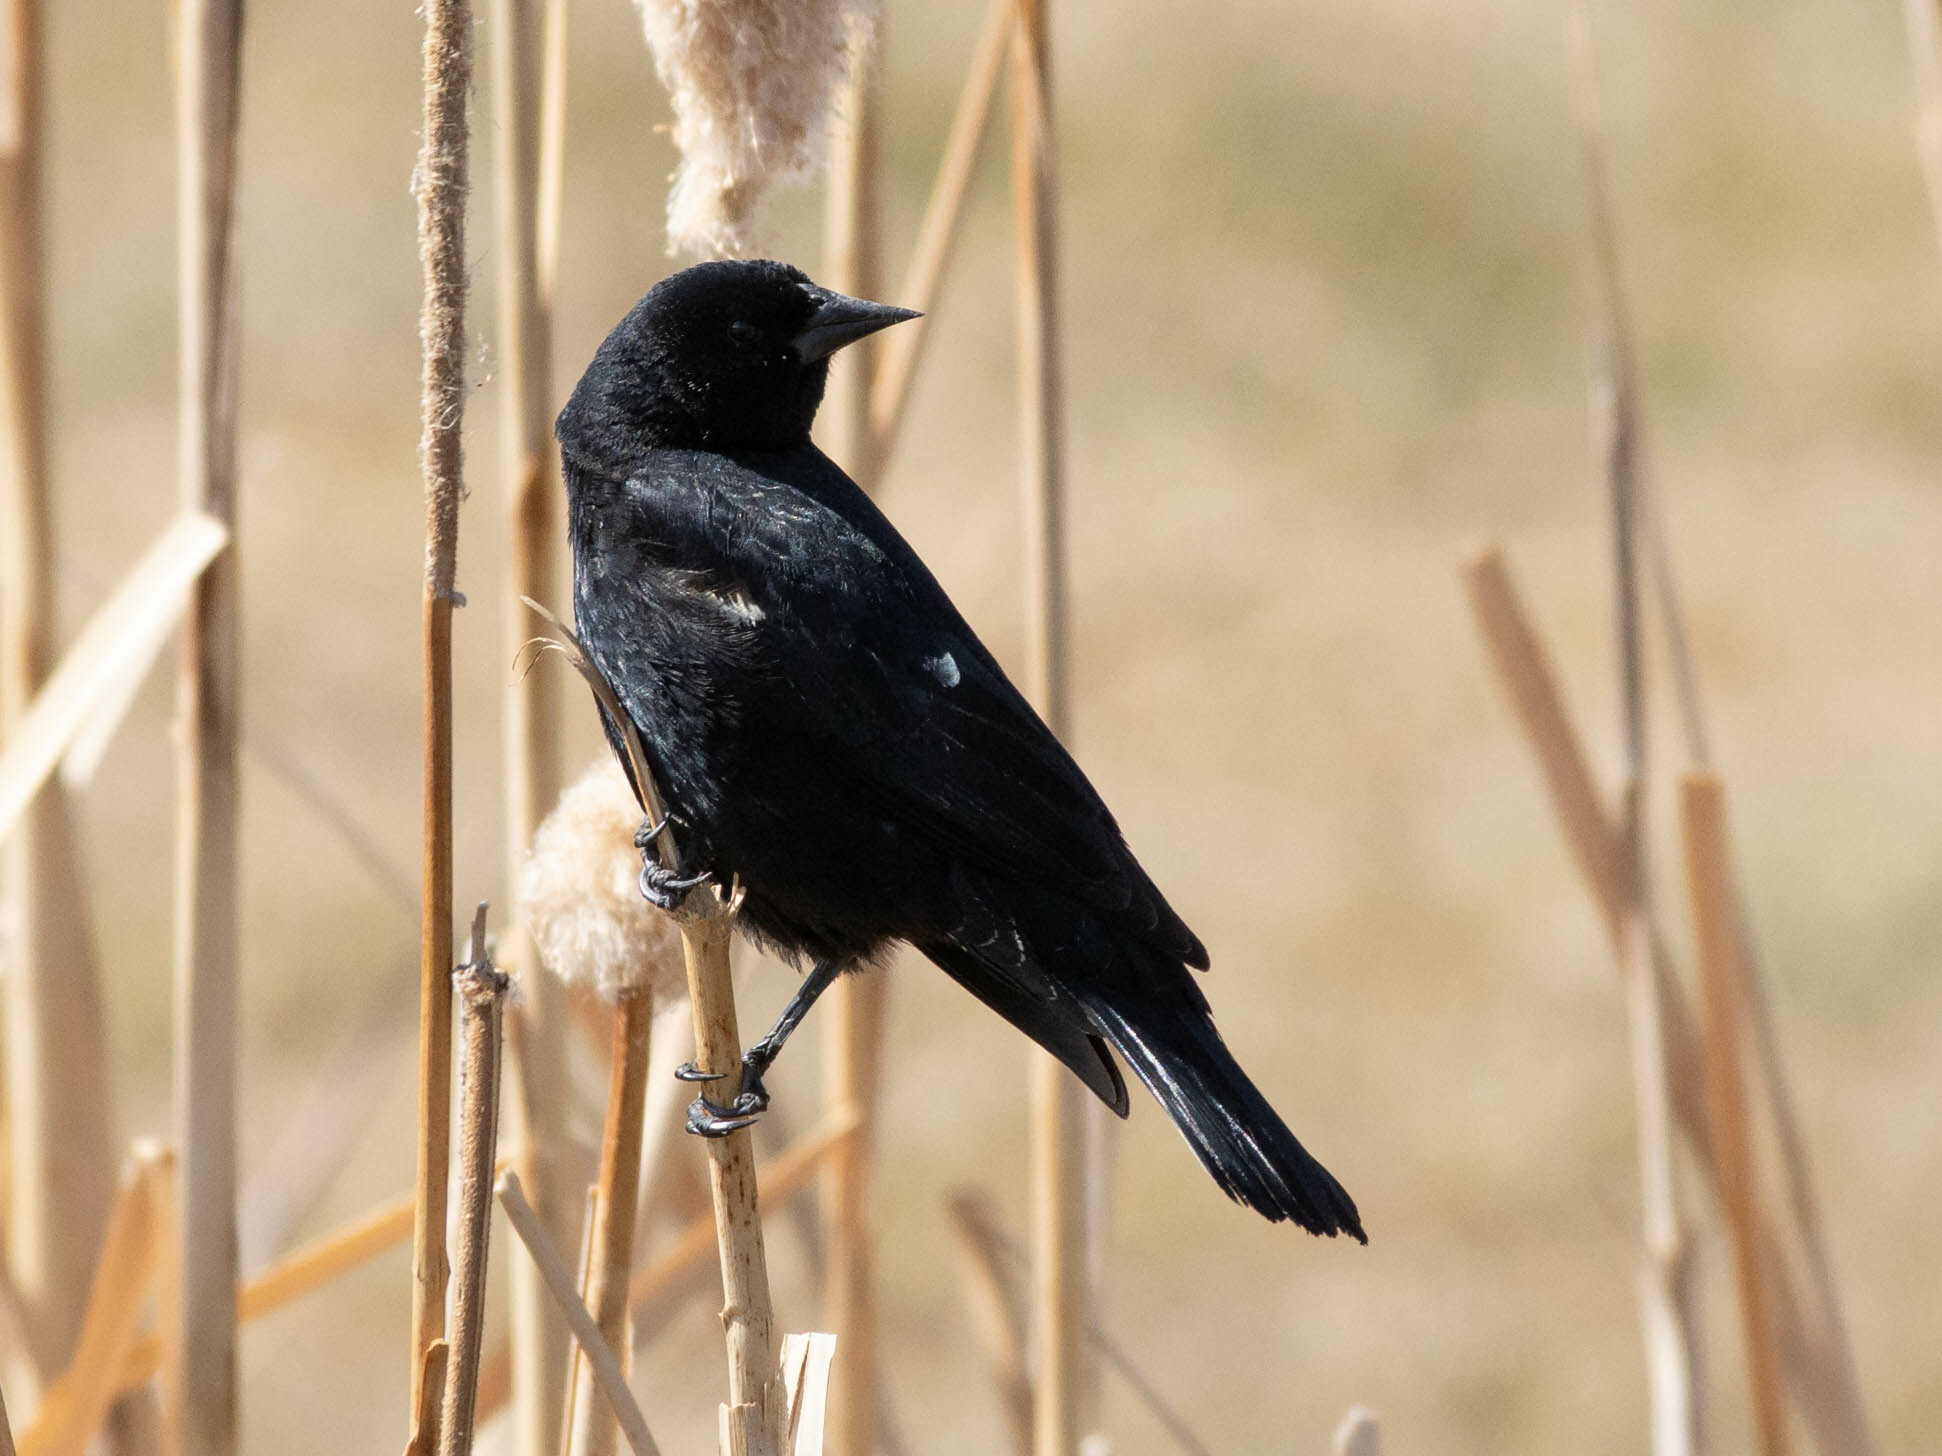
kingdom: Animalia
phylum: Chordata
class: Aves
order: Passeriformes
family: Icteridae
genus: Agelaius
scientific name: Agelaius phoeniceus
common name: Red-winged blackbird
